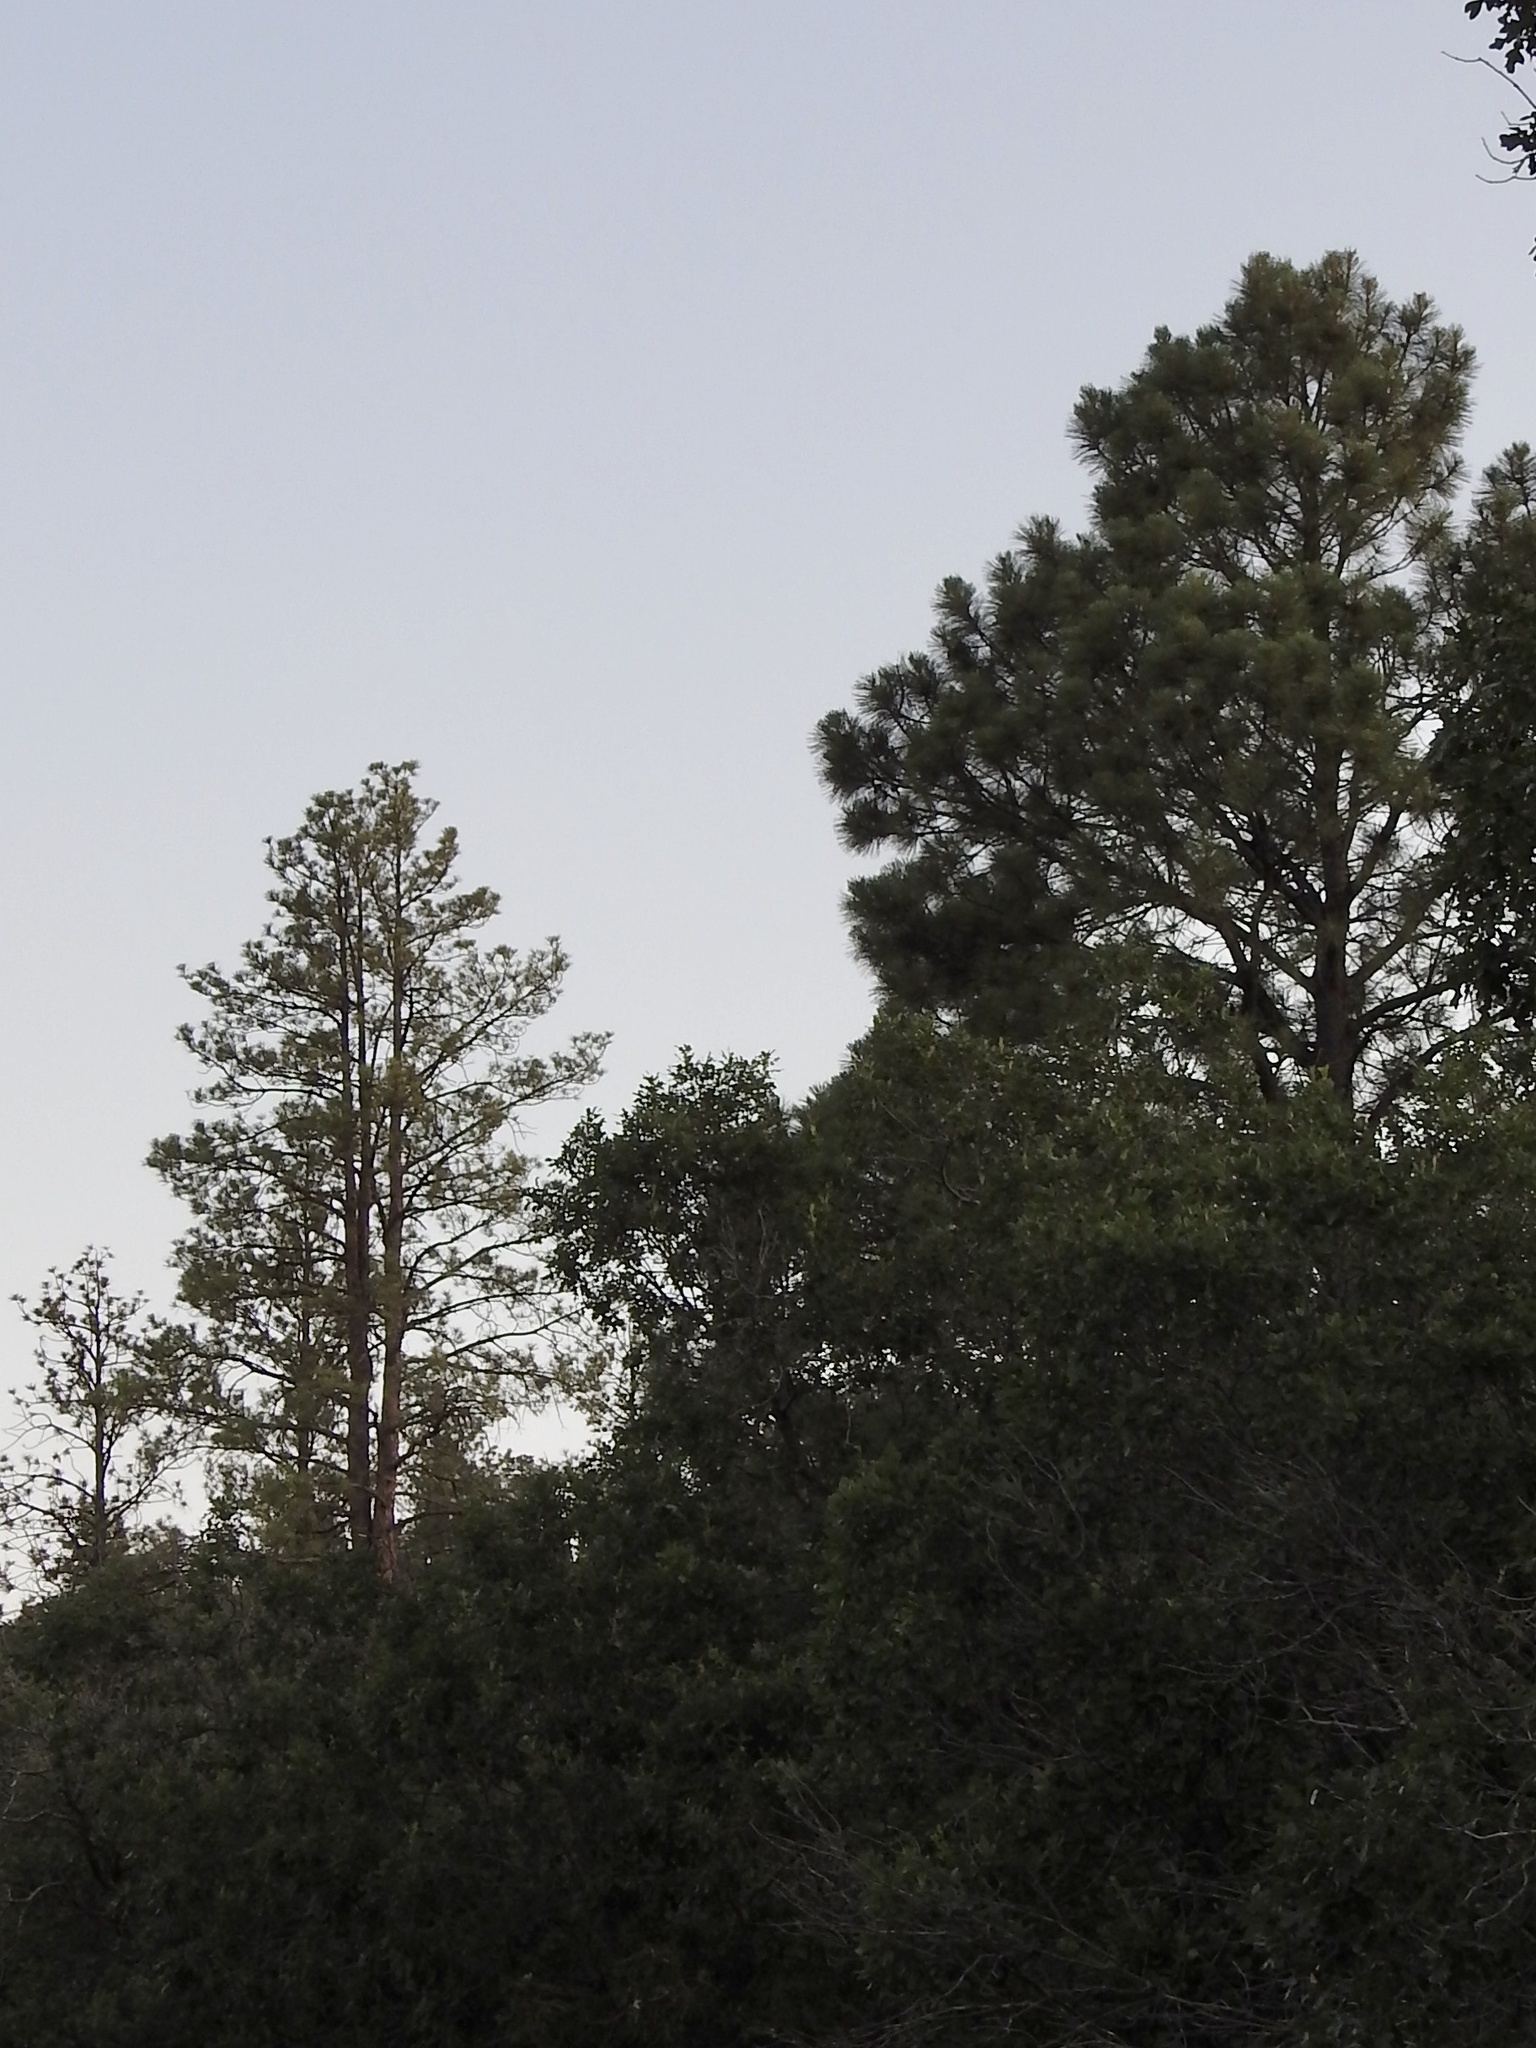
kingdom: Plantae
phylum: Tracheophyta
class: Pinopsida
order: Pinales
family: Pinaceae
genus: Pinus
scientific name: Pinus ponderosa
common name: Western yellow-pine
